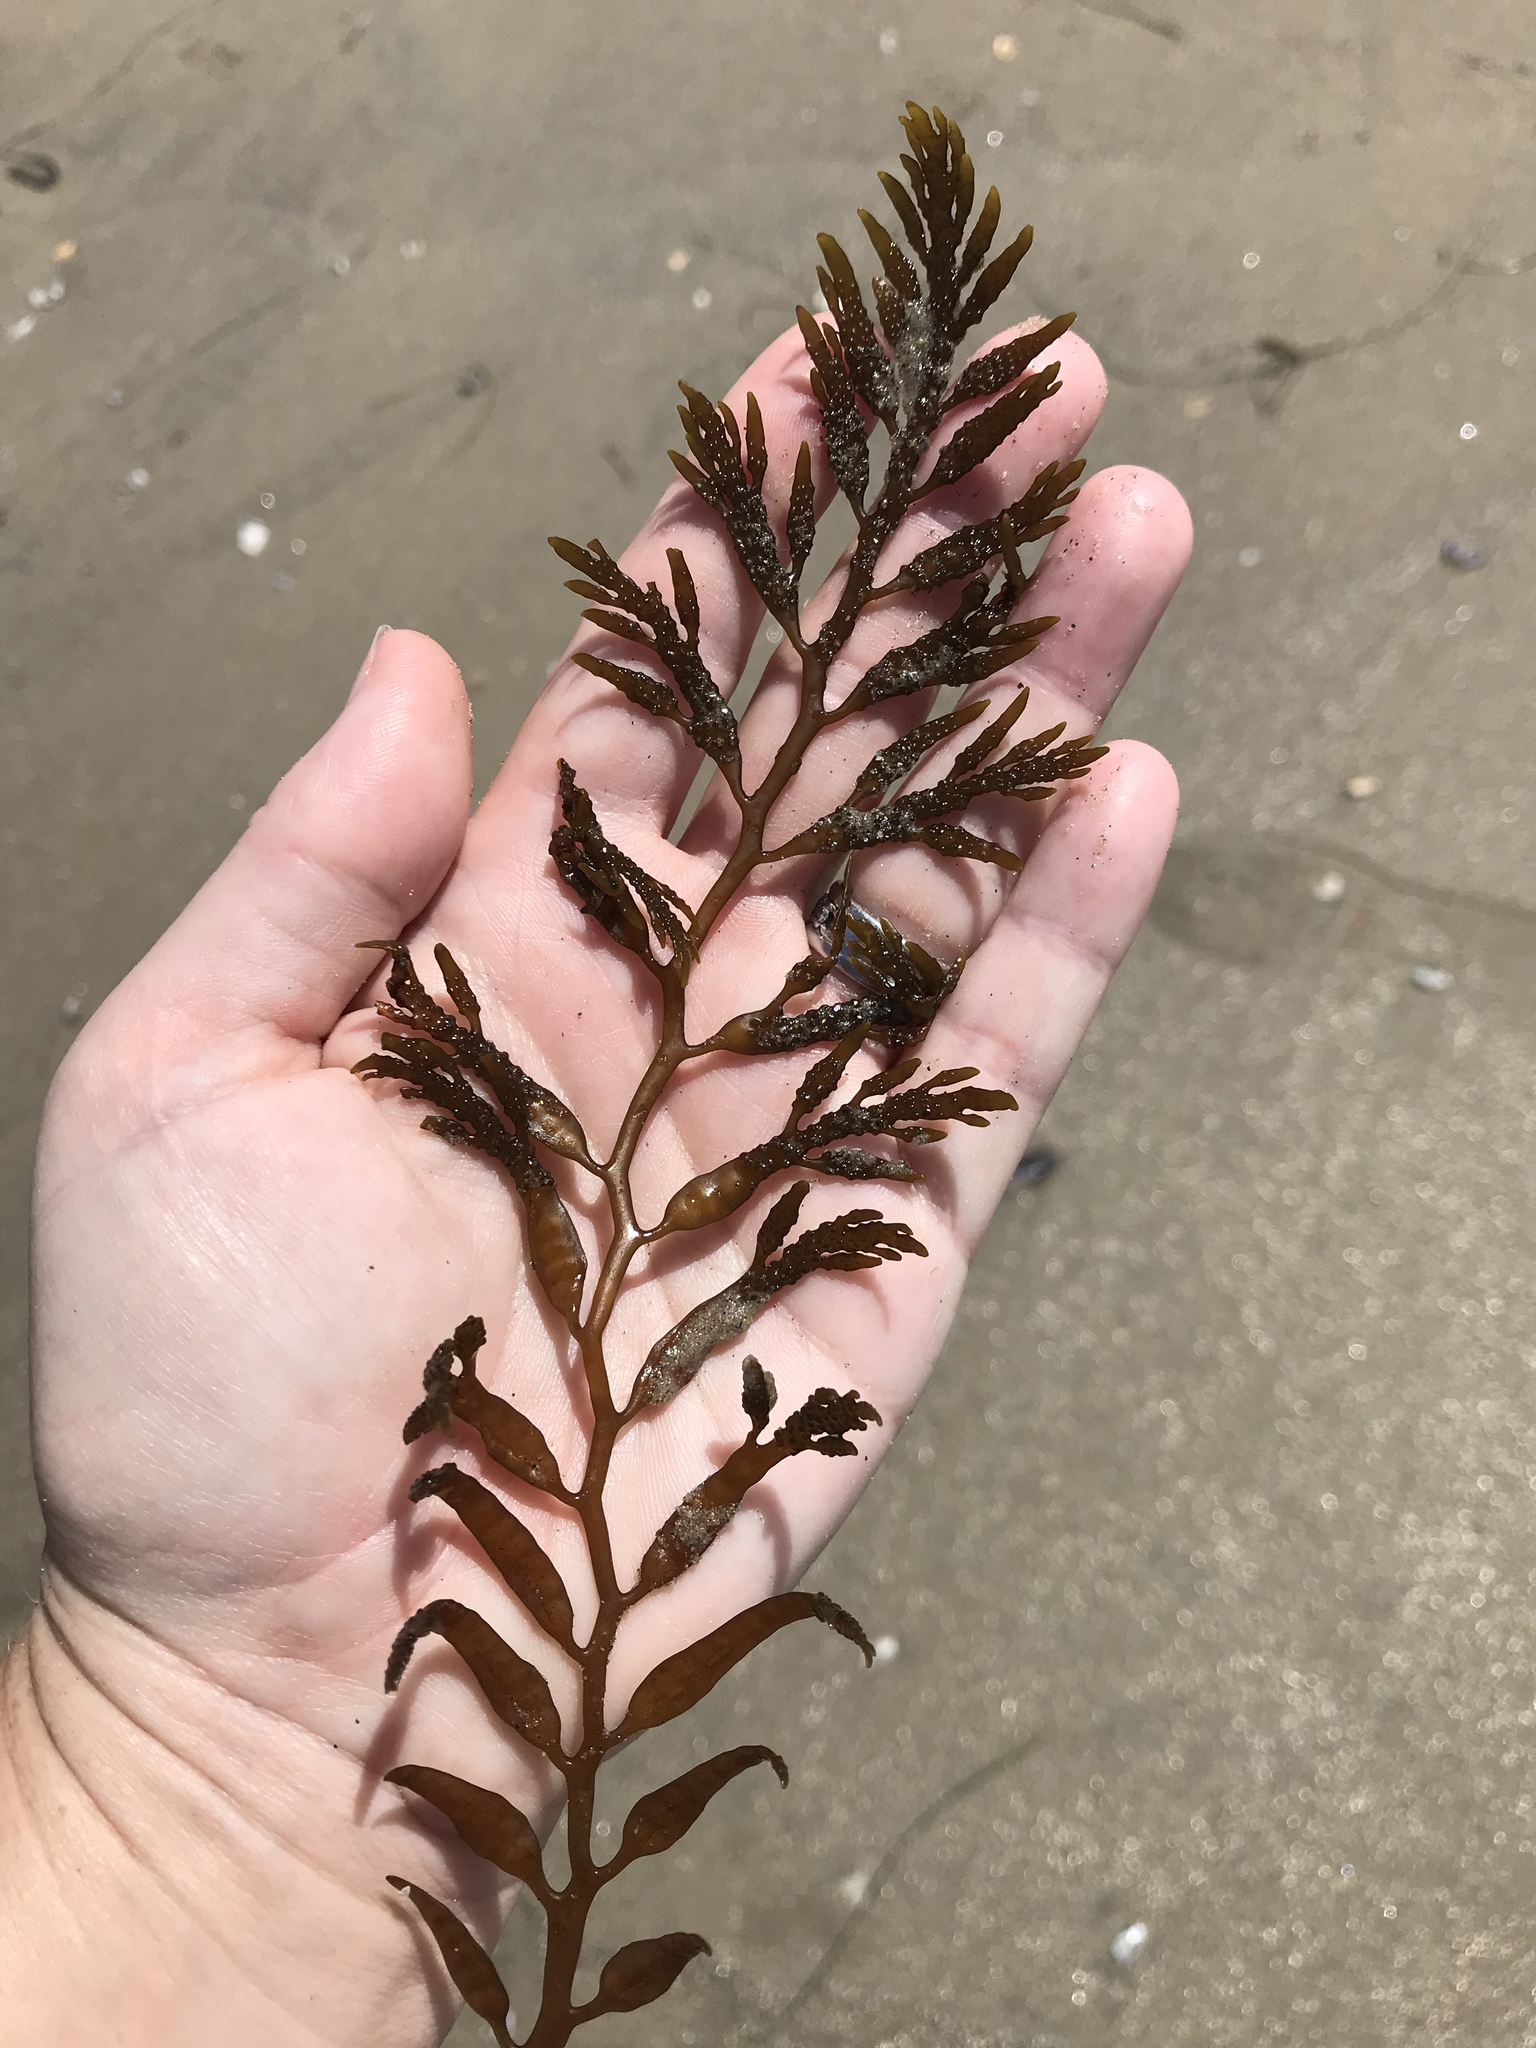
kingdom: Chromista
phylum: Ochrophyta
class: Phaeophyceae
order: Fucales
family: Sargassaceae
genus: Stephanocystis
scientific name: Stephanocystis
